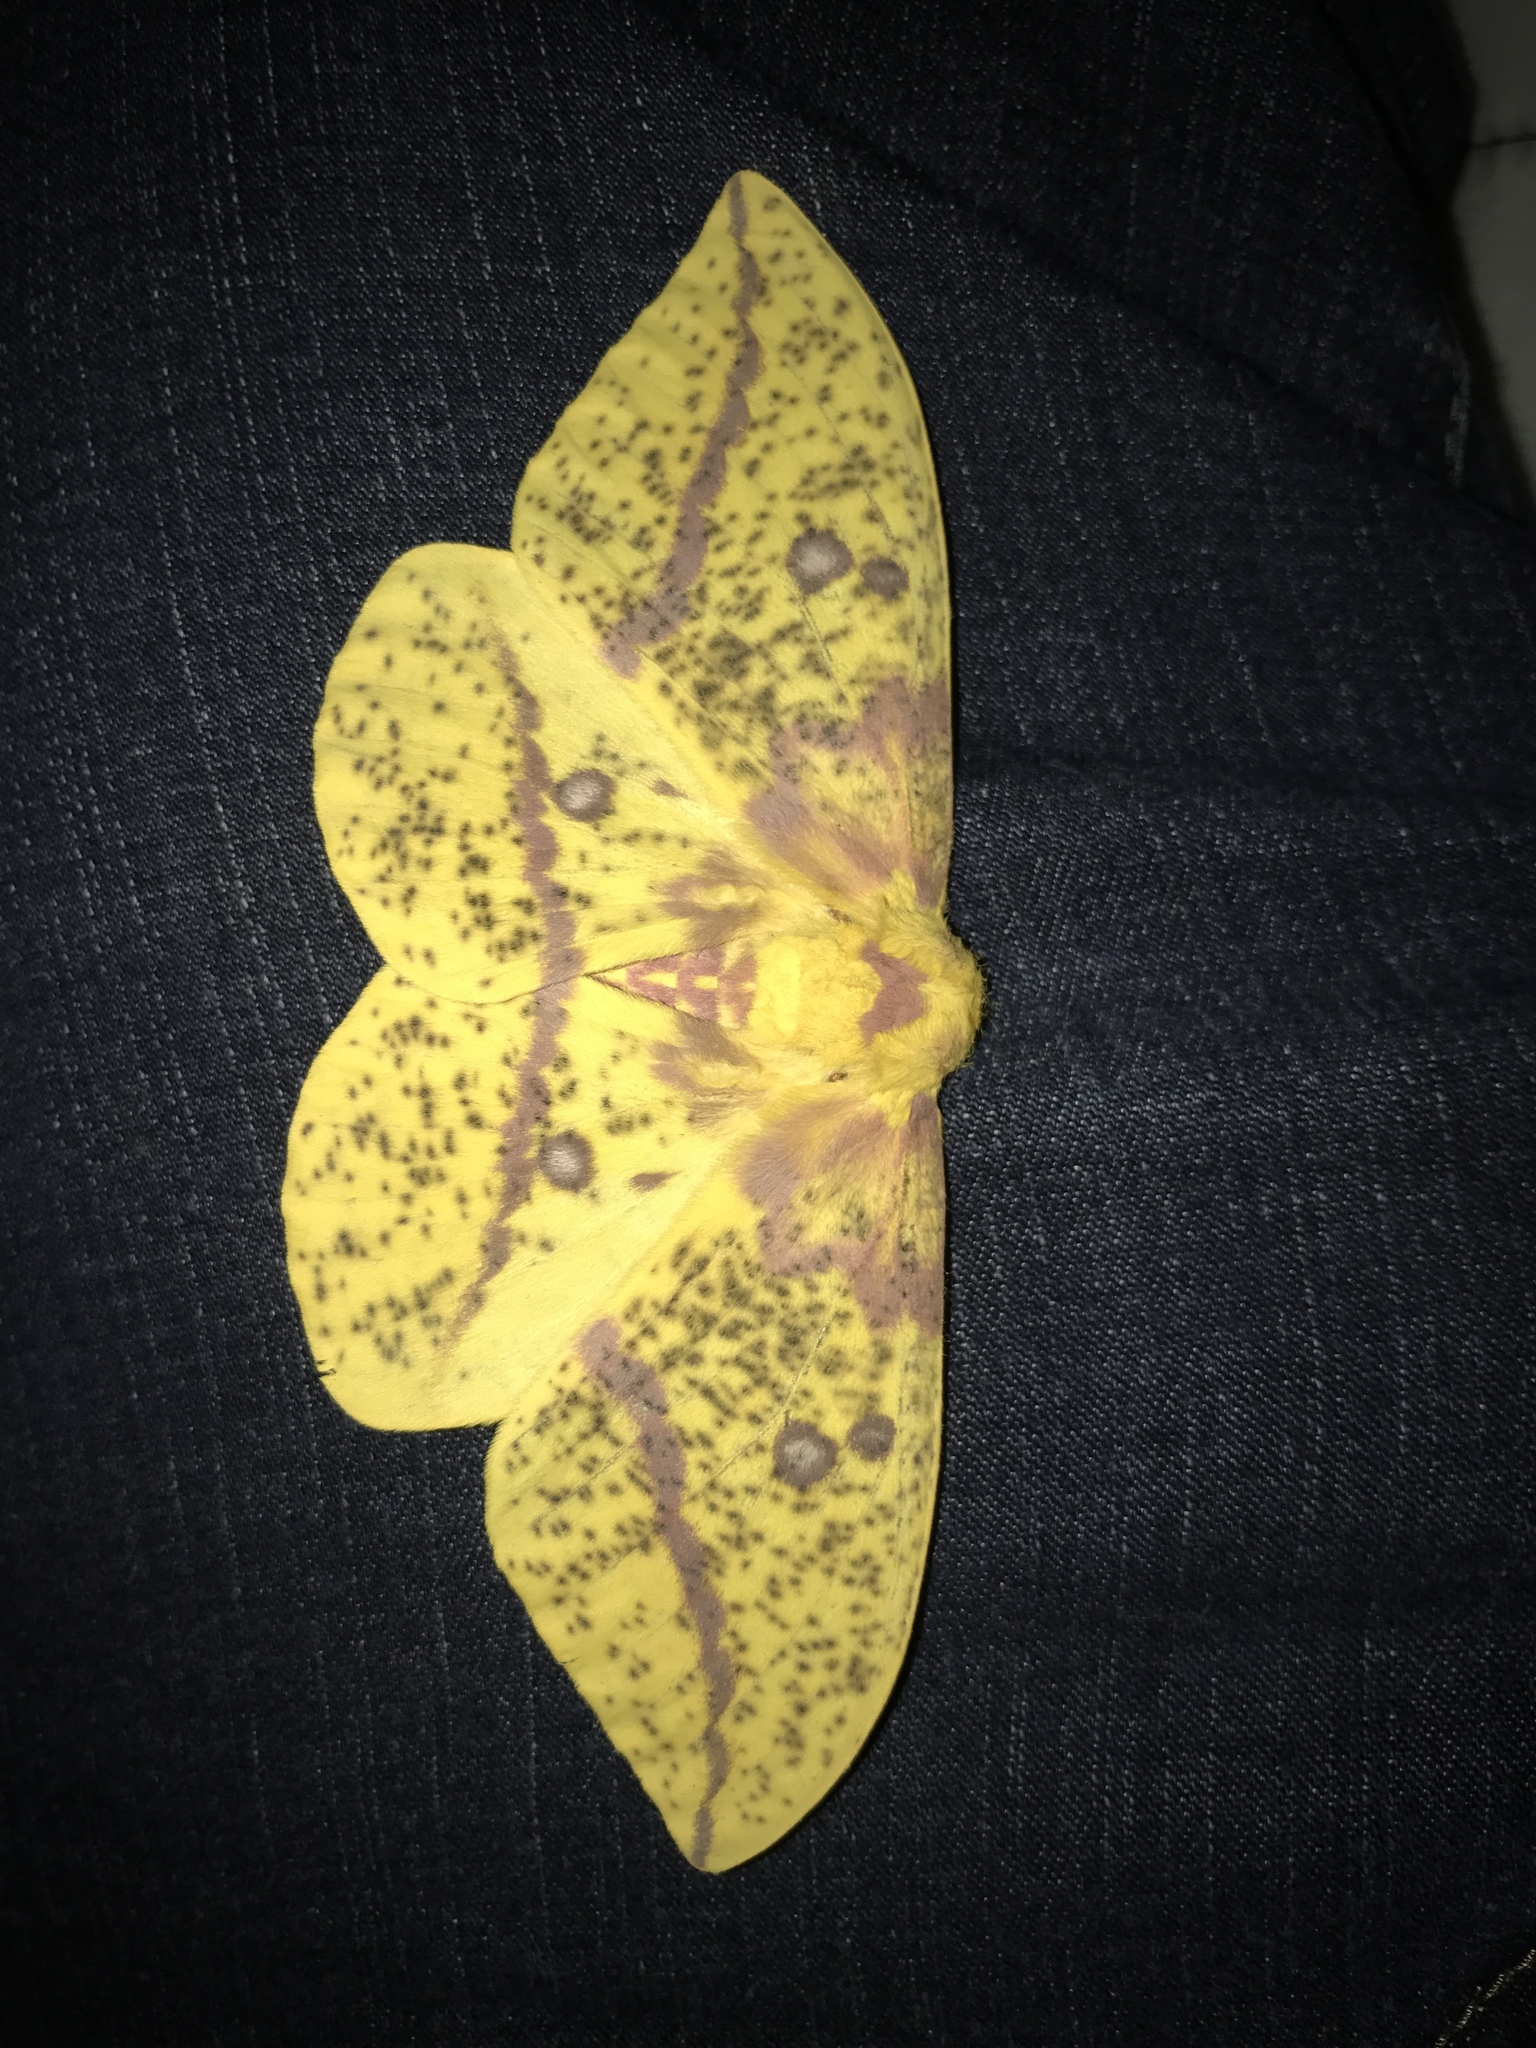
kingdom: Animalia
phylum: Arthropoda
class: Insecta
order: Lepidoptera
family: Saturniidae
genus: Eacles
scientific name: Eacles imperialis
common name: Imperial moth
